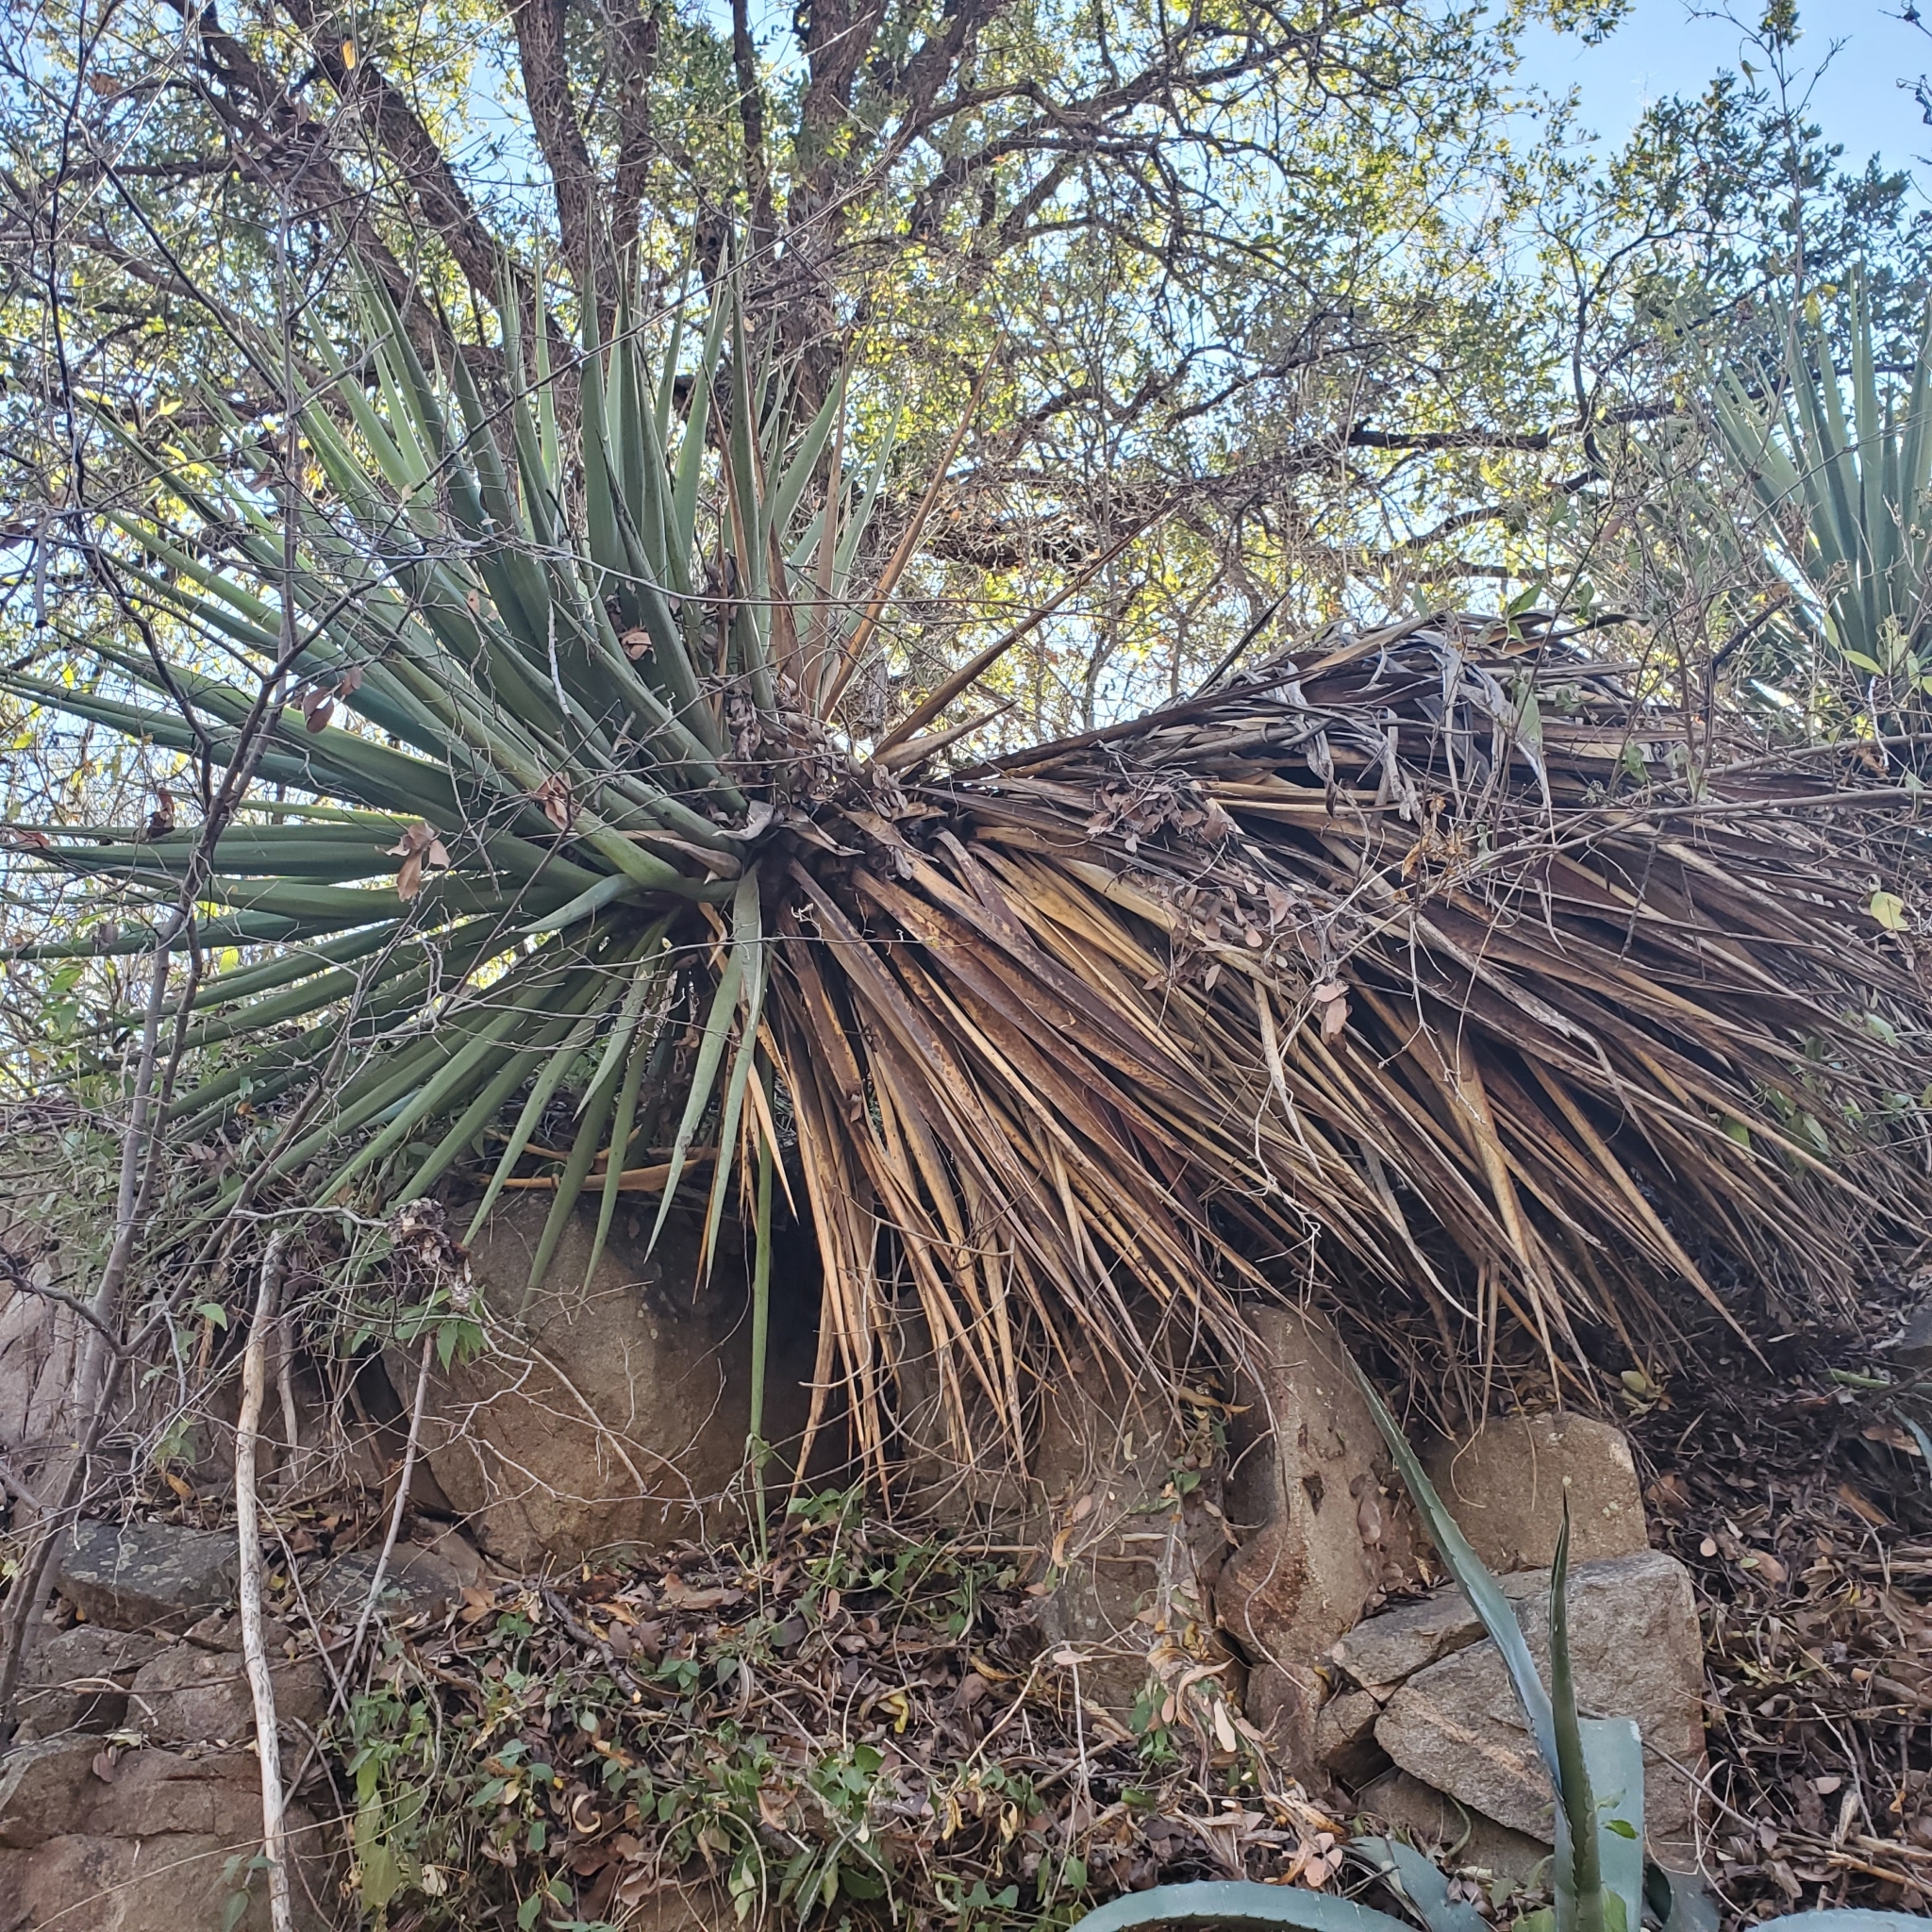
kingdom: Plantae
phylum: Tracheophyta
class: Liliopsida
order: Asparagales
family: Asparagaceae
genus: Yucca
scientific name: Yucca madrensis
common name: Hoary yucca
